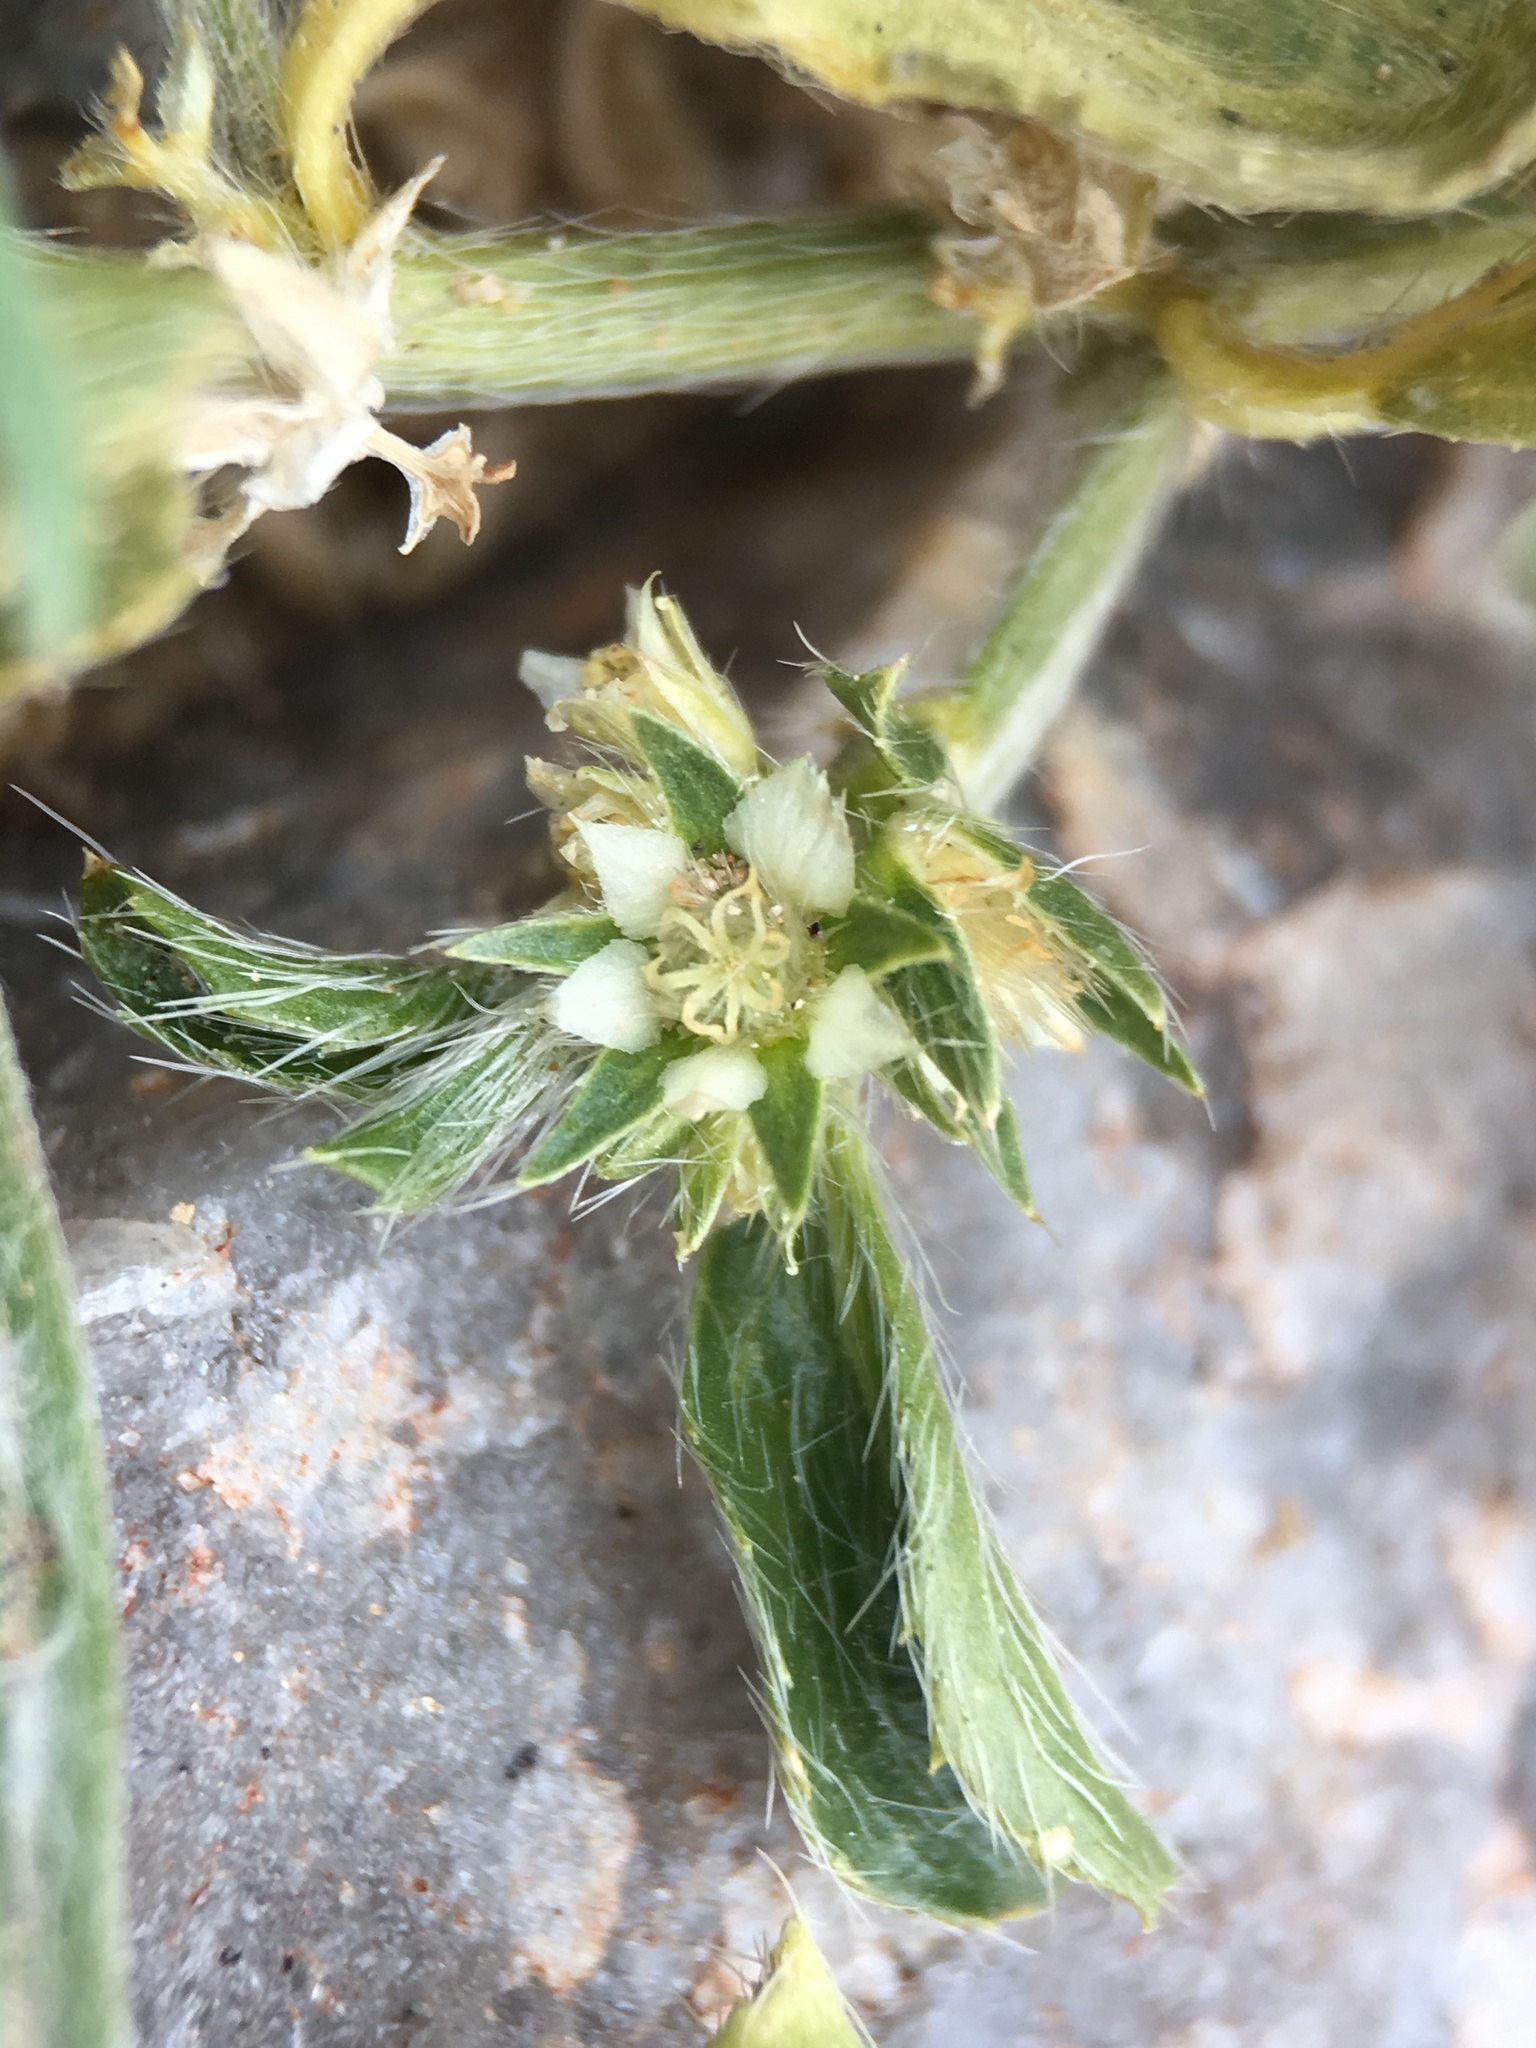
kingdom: Plantae
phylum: Tracheophyta
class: Magnoliopsida
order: Malpighiales
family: Euphorbiaceae
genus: Ditaxis
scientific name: Ditaxis serrata
